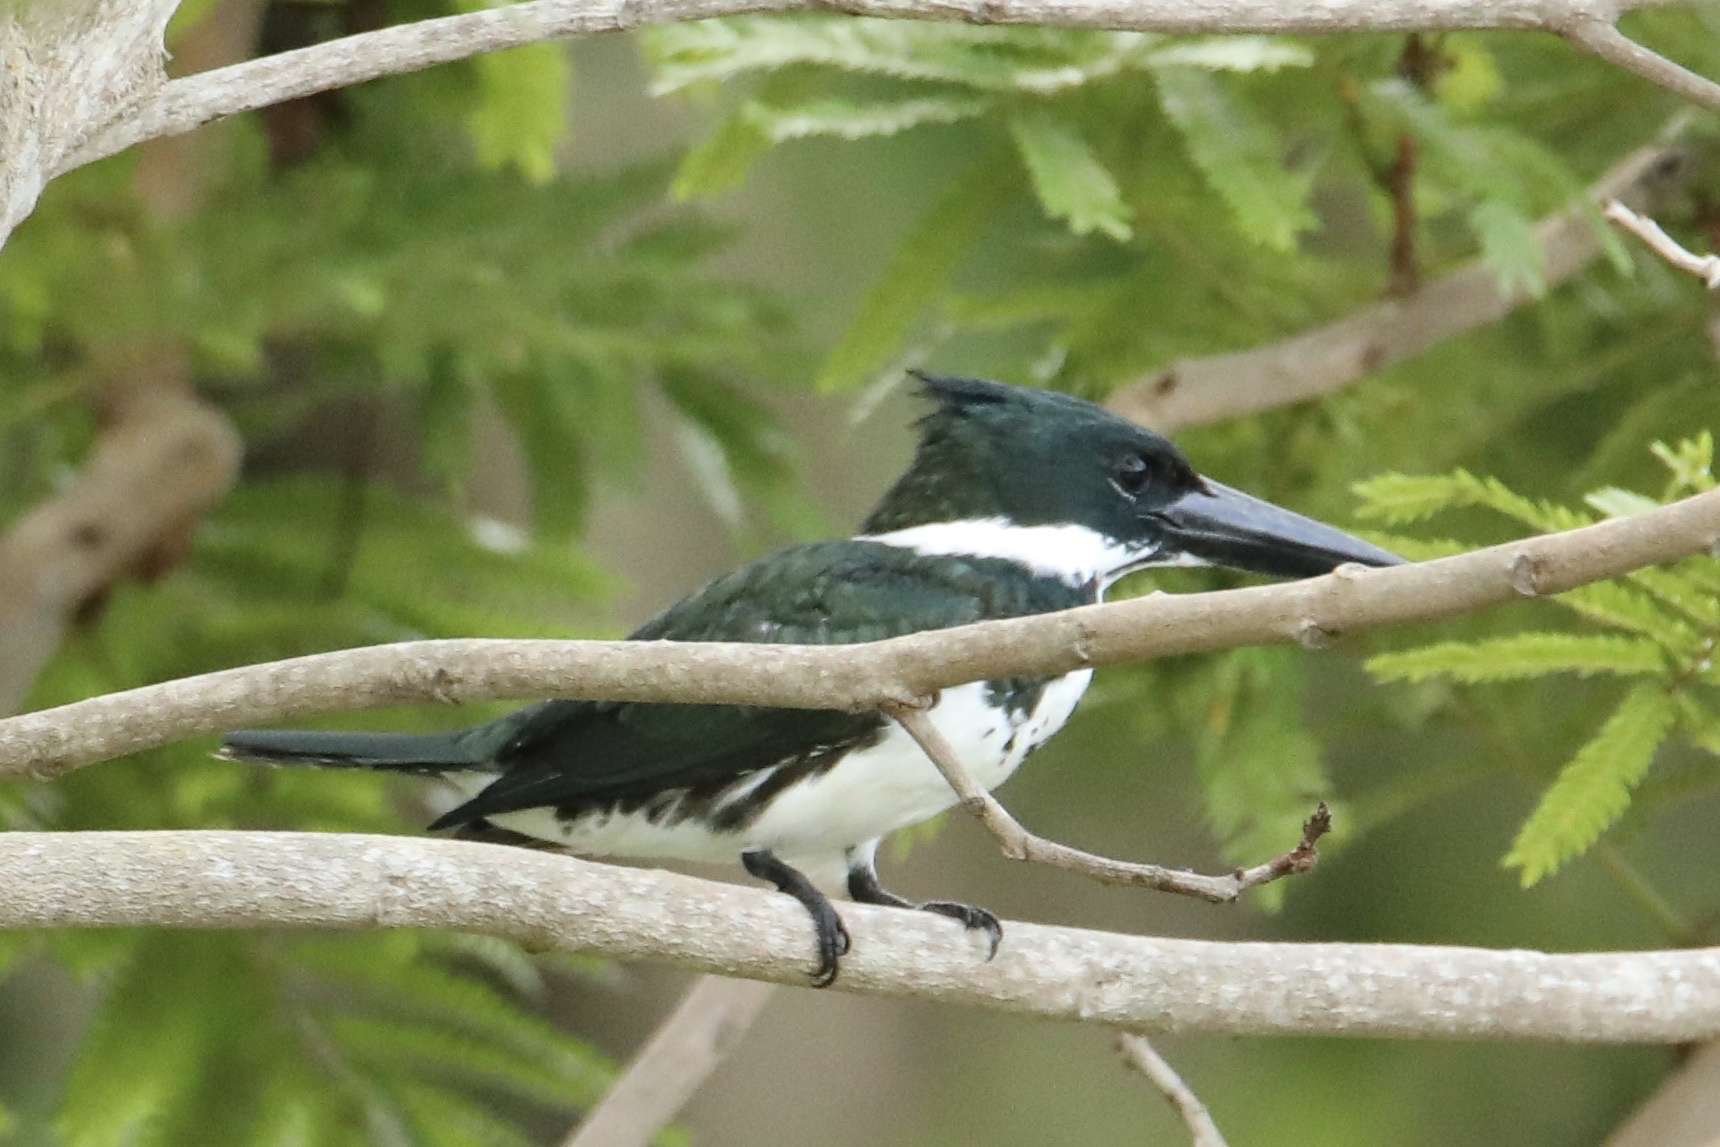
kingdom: Animalia
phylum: Chordata
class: Aves
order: Coraciiformes
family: Alcedinidae
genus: Chloroceryle
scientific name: Chloroceryle amazona
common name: Amazon kingfisher
